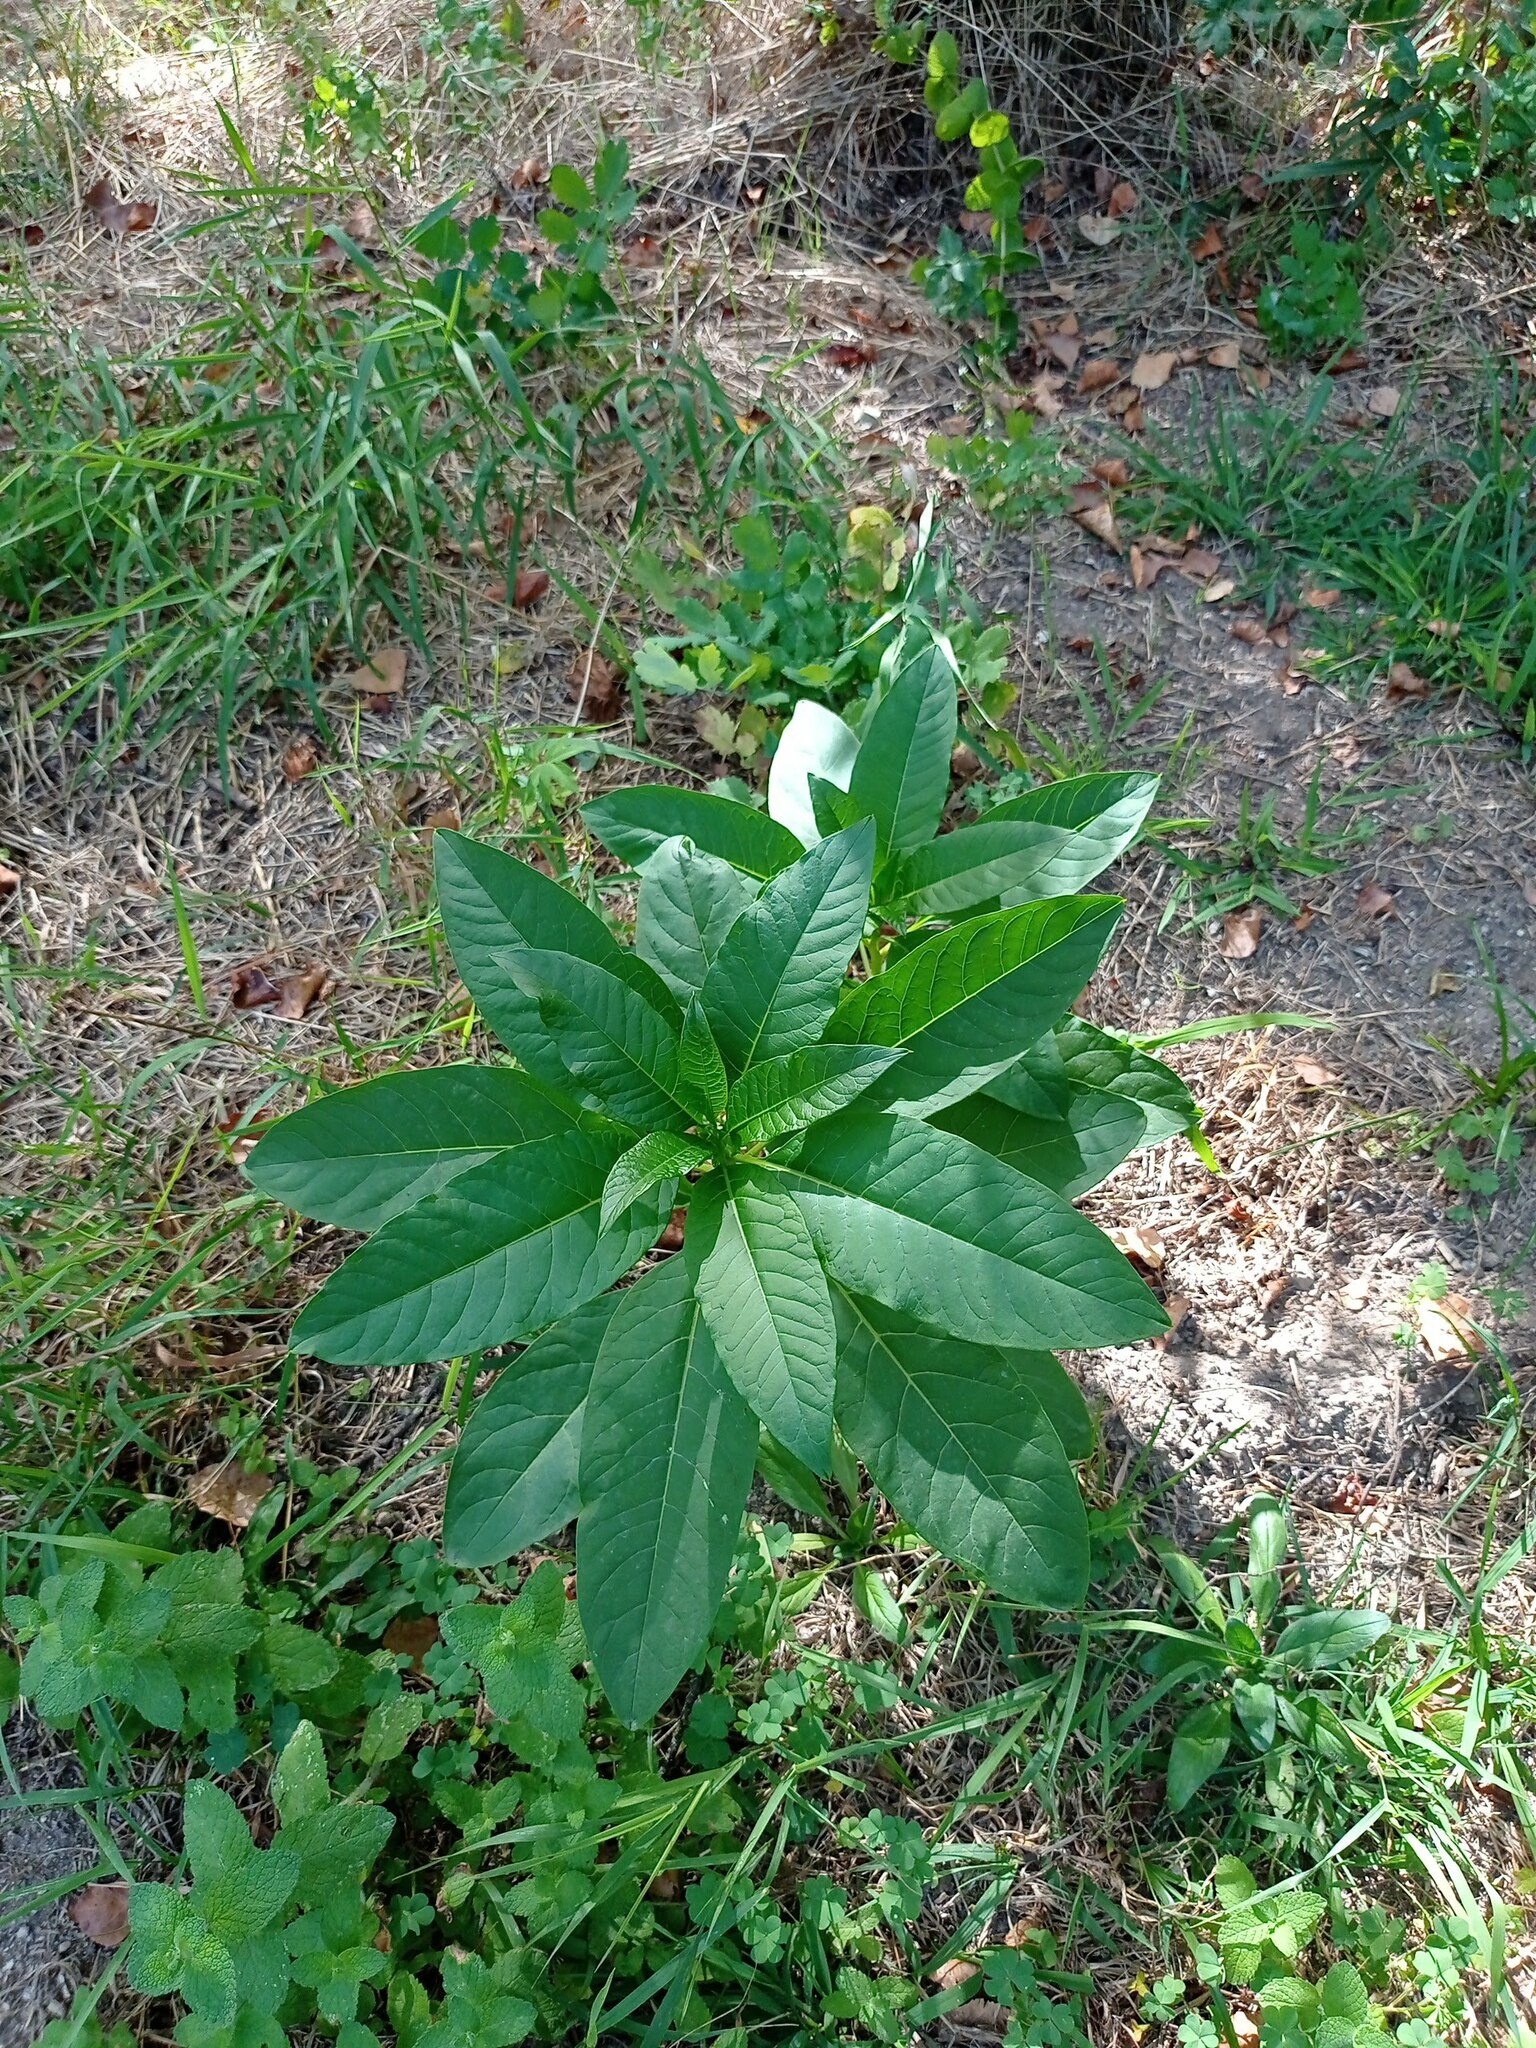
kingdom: Plantae
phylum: Tracheophyta
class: Magnoliopsida
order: Caryophyllales
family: Phytolaccaceae
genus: Phytolacca
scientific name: Phytolacca americana
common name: American pokeweed
